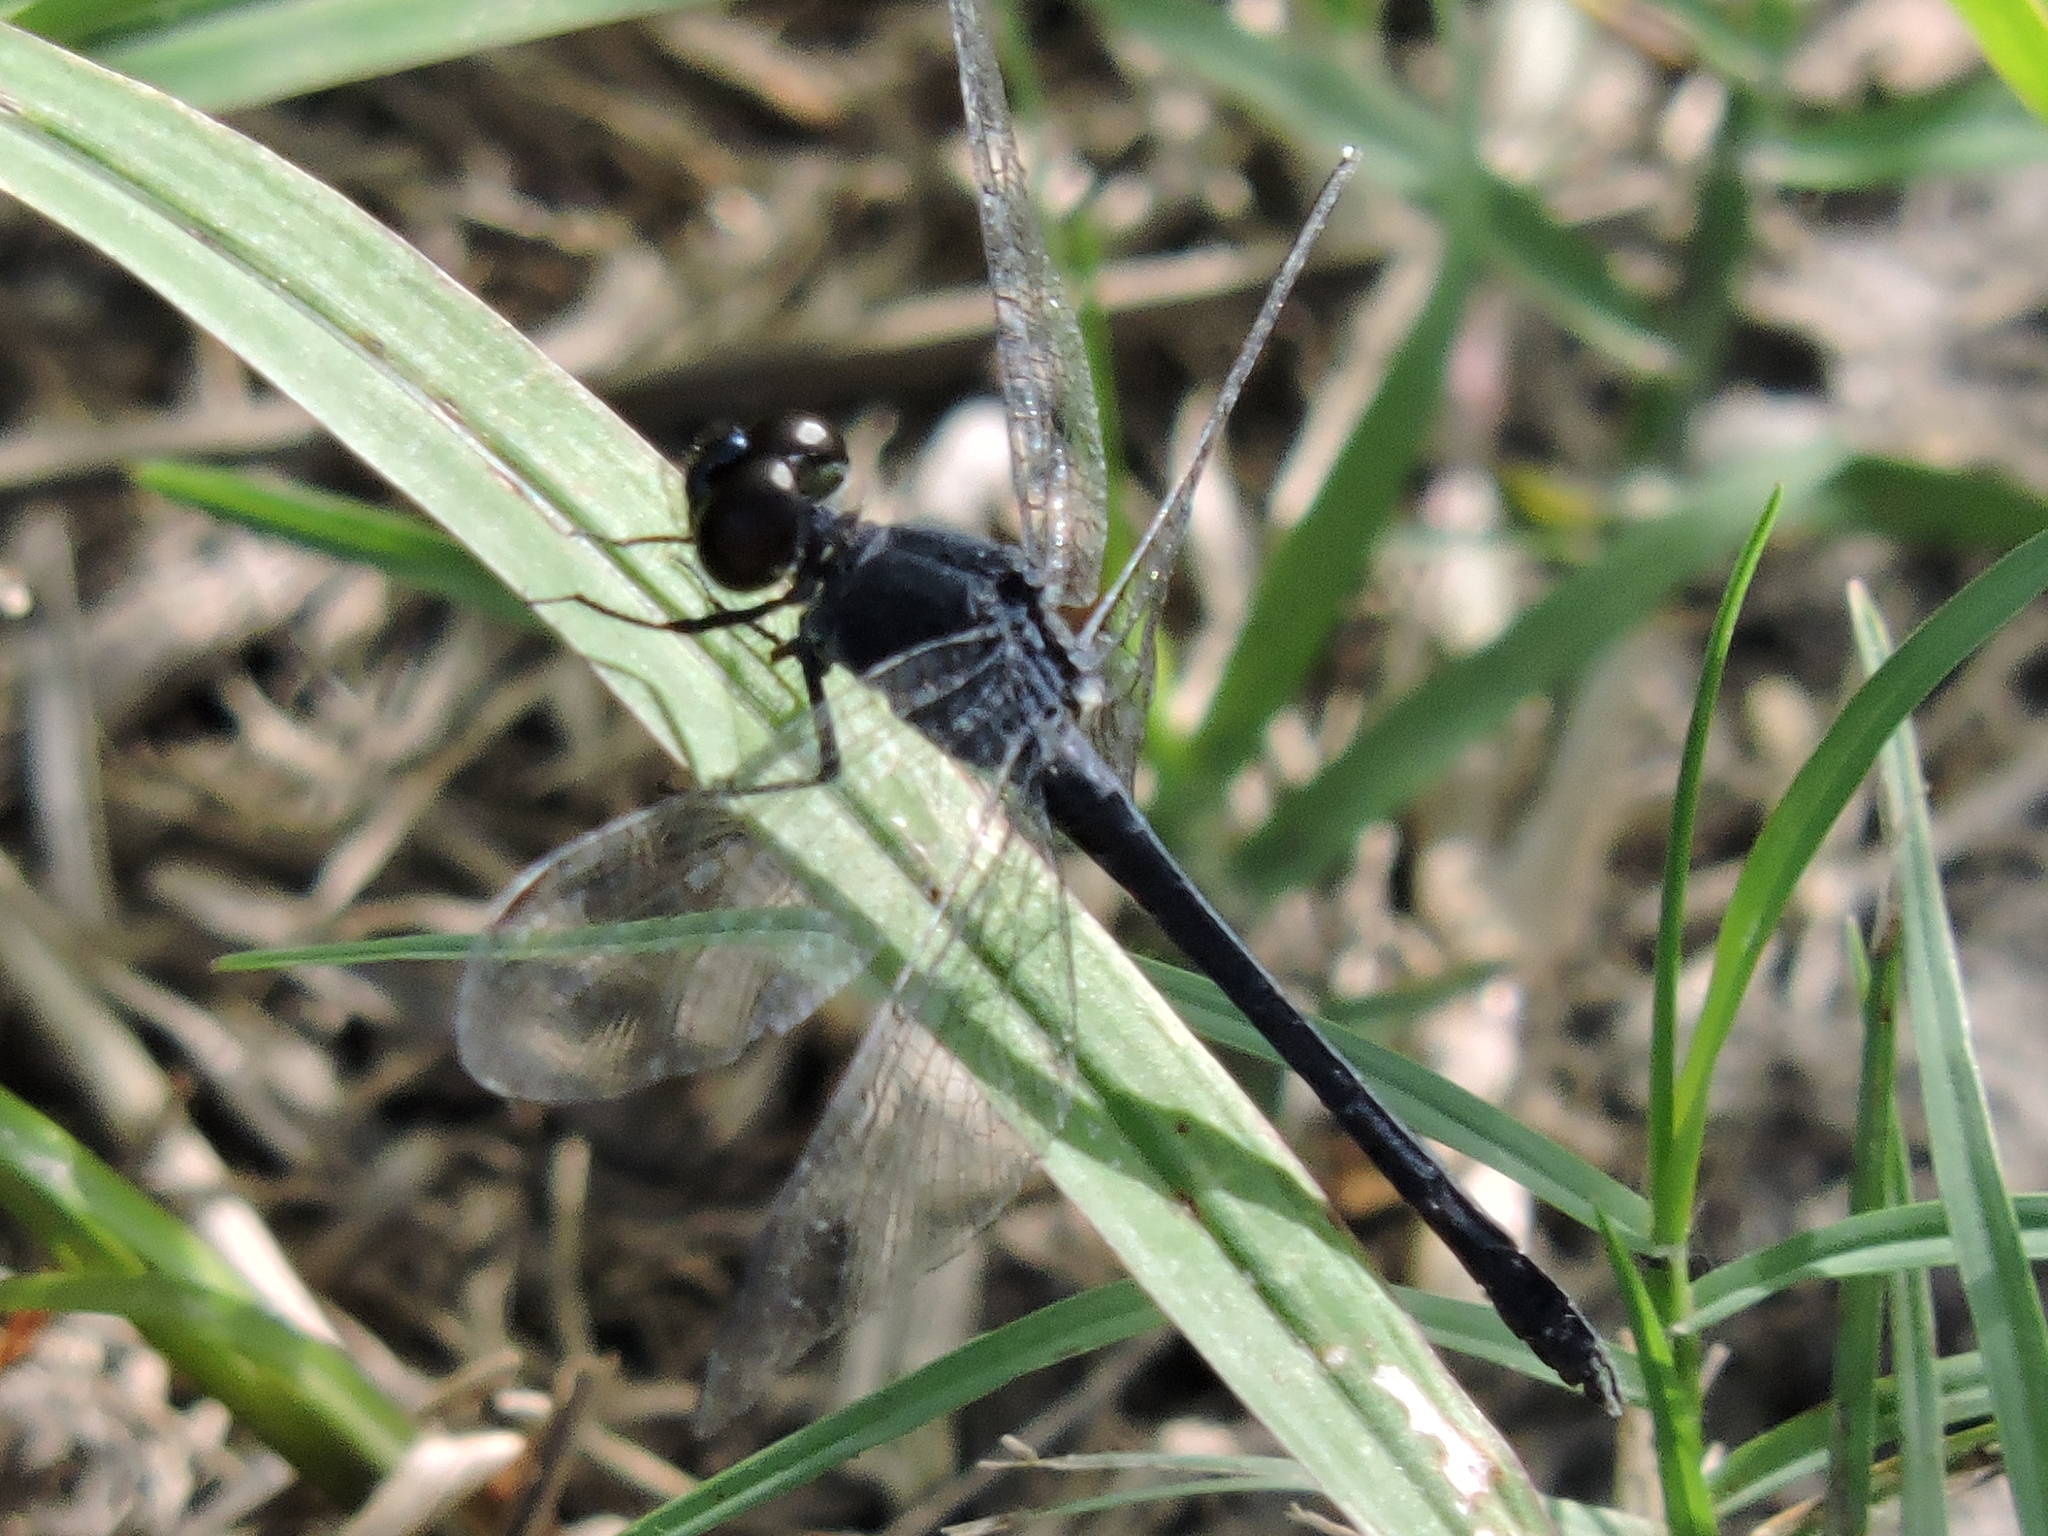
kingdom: Animalia
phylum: Arthropoda
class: Insecta
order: Odonata
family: Libellulidae
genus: Erythrodiplax
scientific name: Erythrodiplax berenice
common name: Seaside dragonlet
